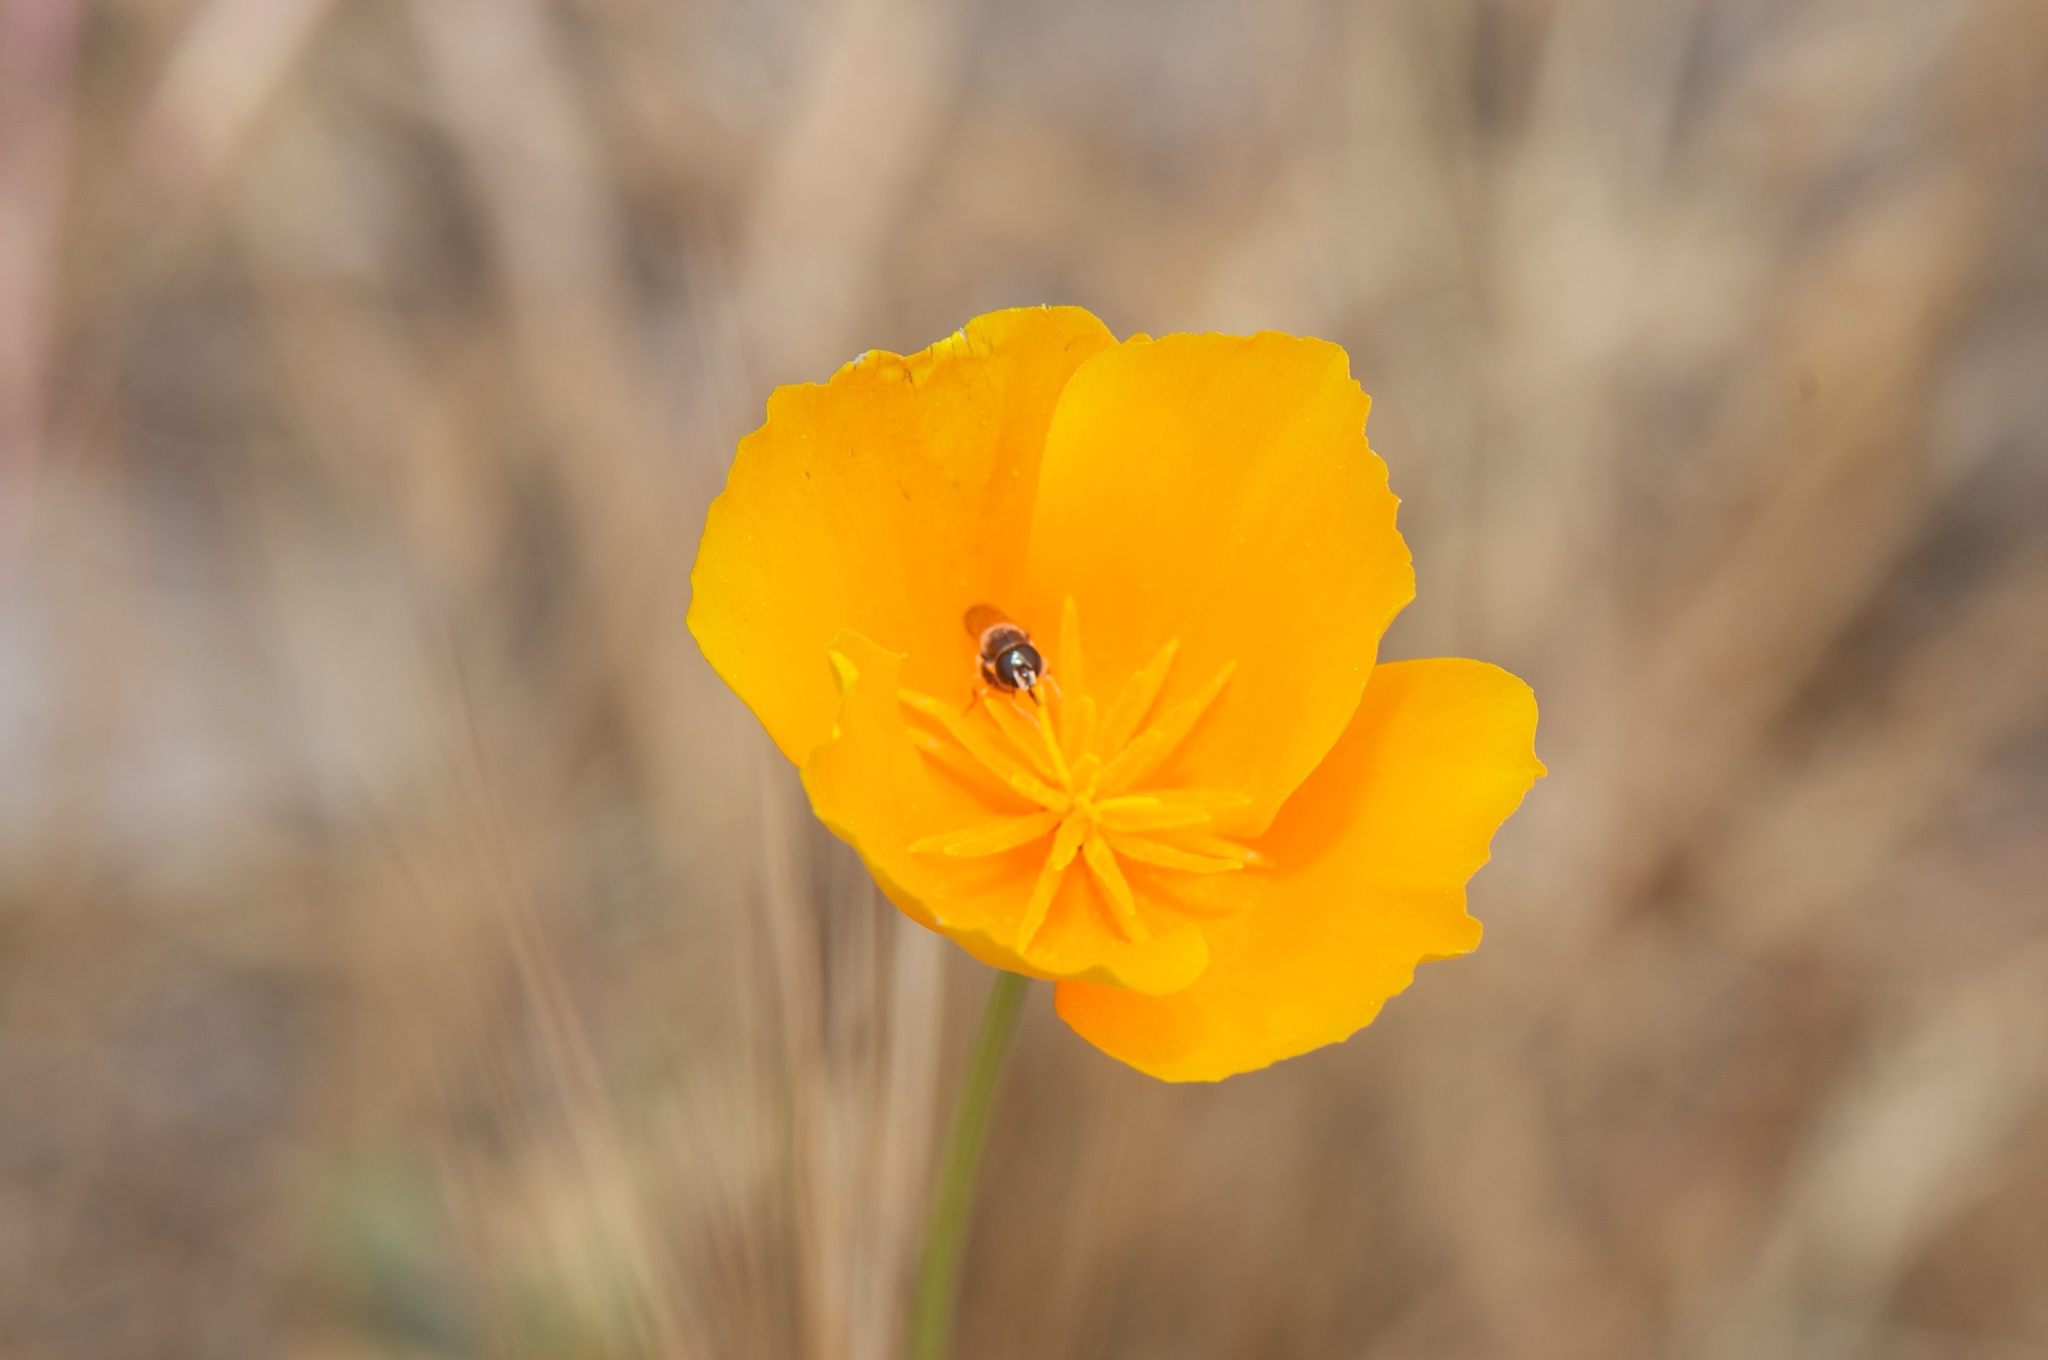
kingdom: Plantae
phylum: Tracheophyta
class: Magnoliopsida
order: Ranunculales
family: Papaveraceae
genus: Eschscholzia
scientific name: Eschscholzia californica
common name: California poppy
